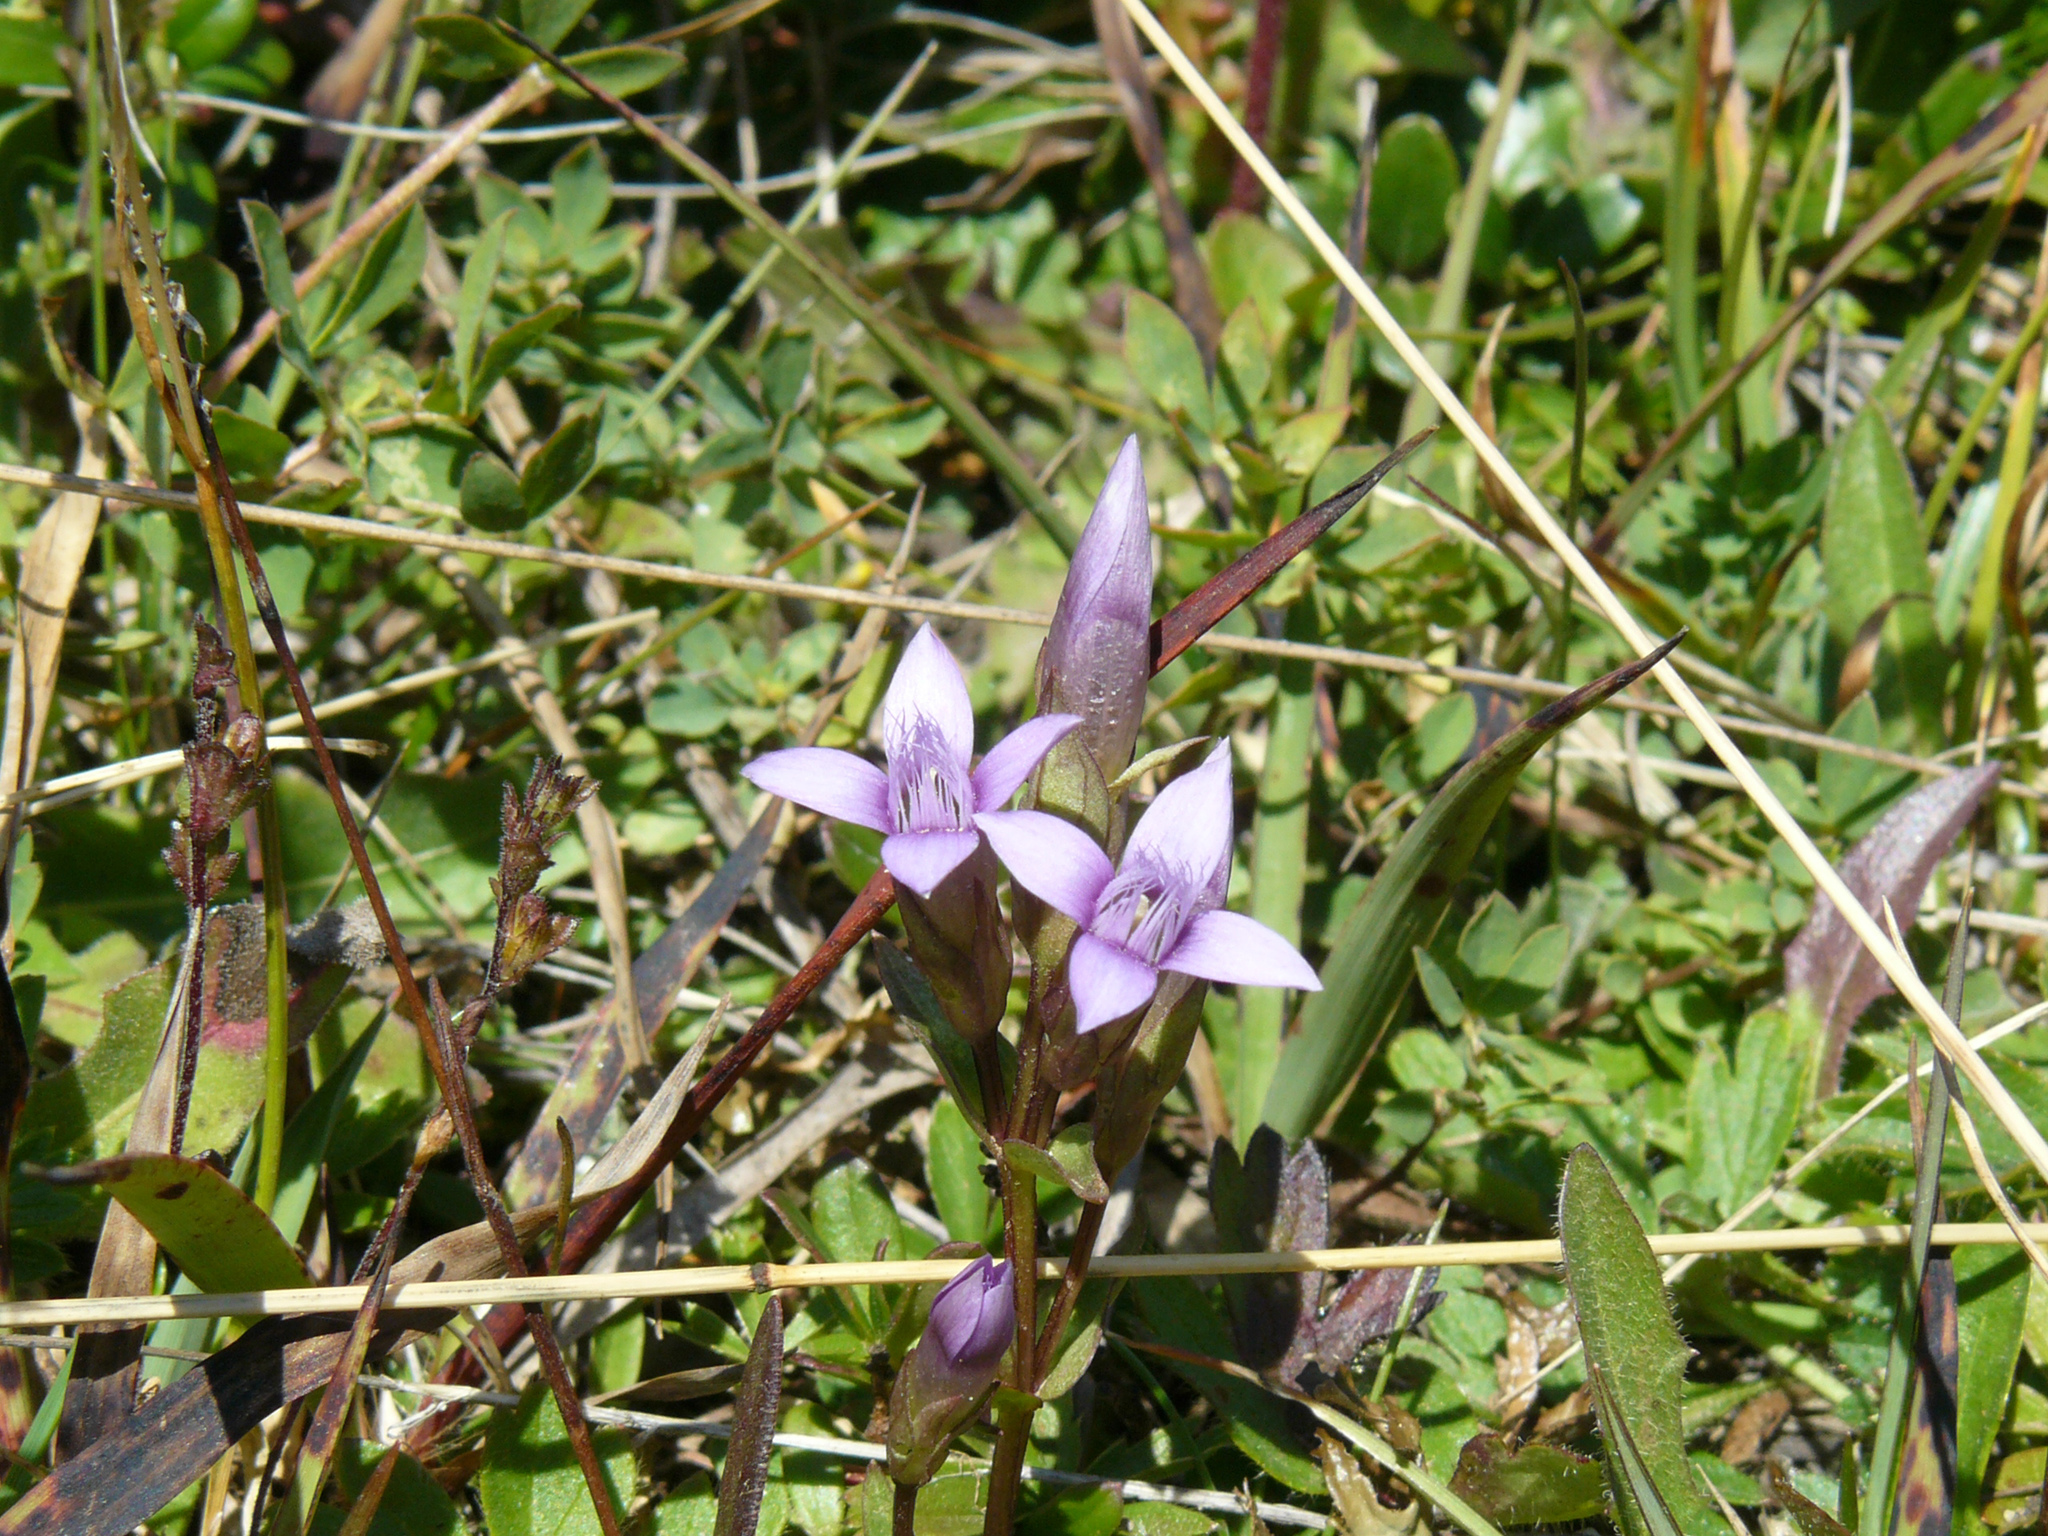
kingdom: Plantae
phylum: Tracheophyta
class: Magnoliopsida
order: Gentianales
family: Gentianaceae
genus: Gentianella
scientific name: Gentianella campestris
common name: Field gentian
